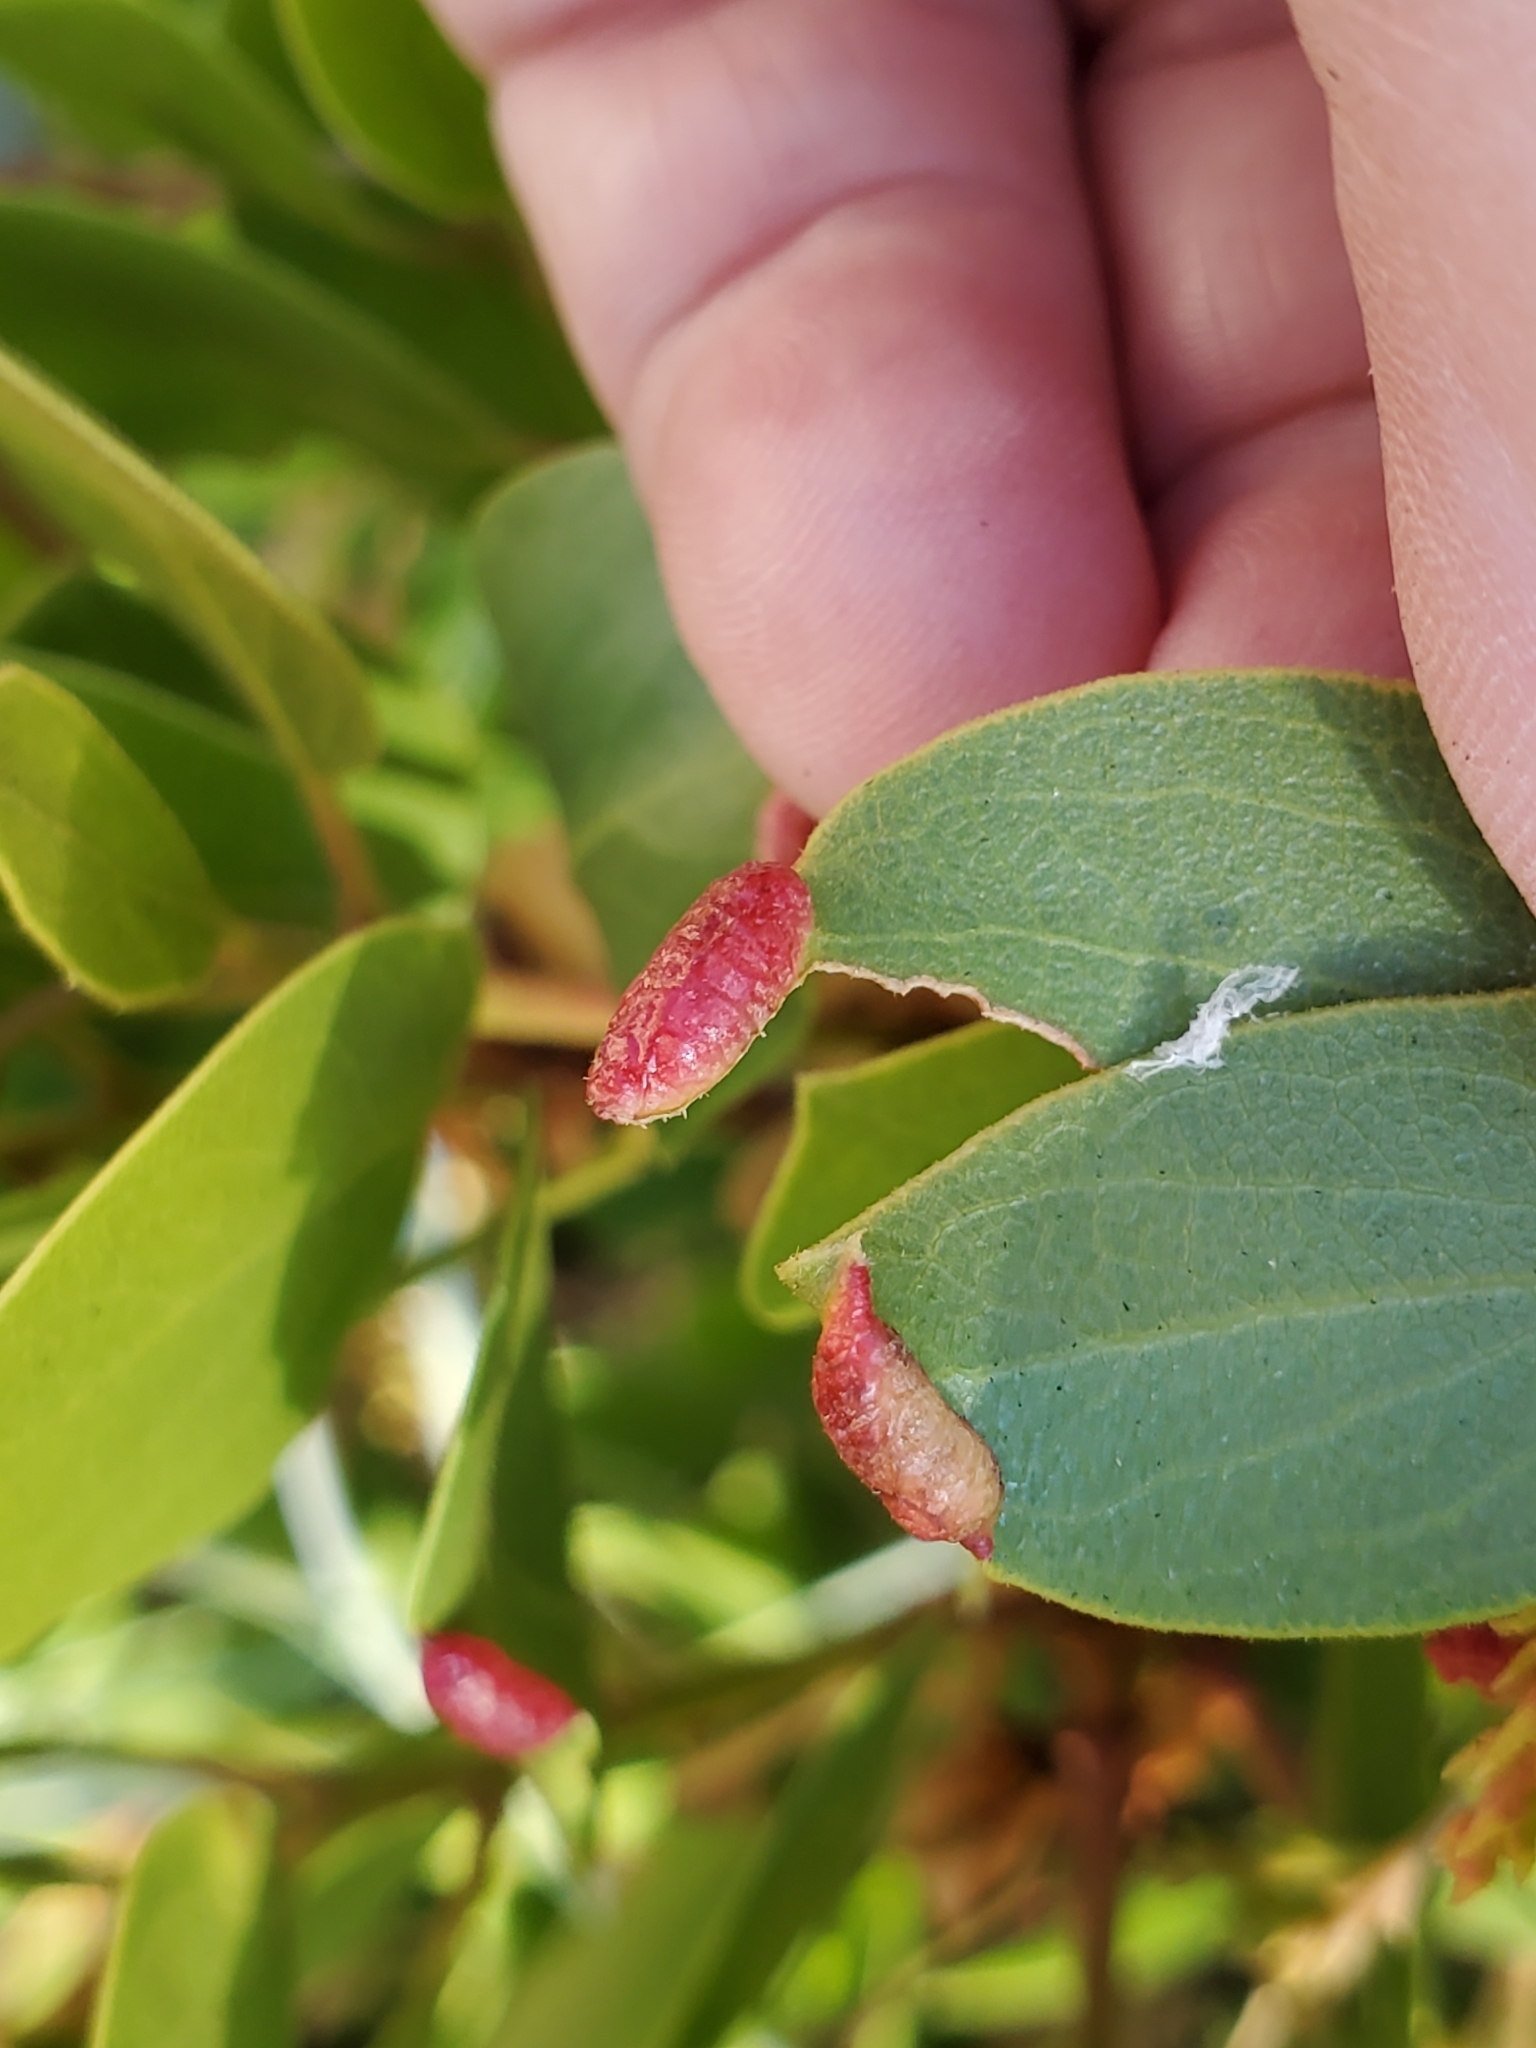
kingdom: Animalia
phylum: Arthropoda
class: Insecta
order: Hemiptera
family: Aphididae
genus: Tamalia
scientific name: Tamalia coweni
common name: Manzanita leafgall aphid
